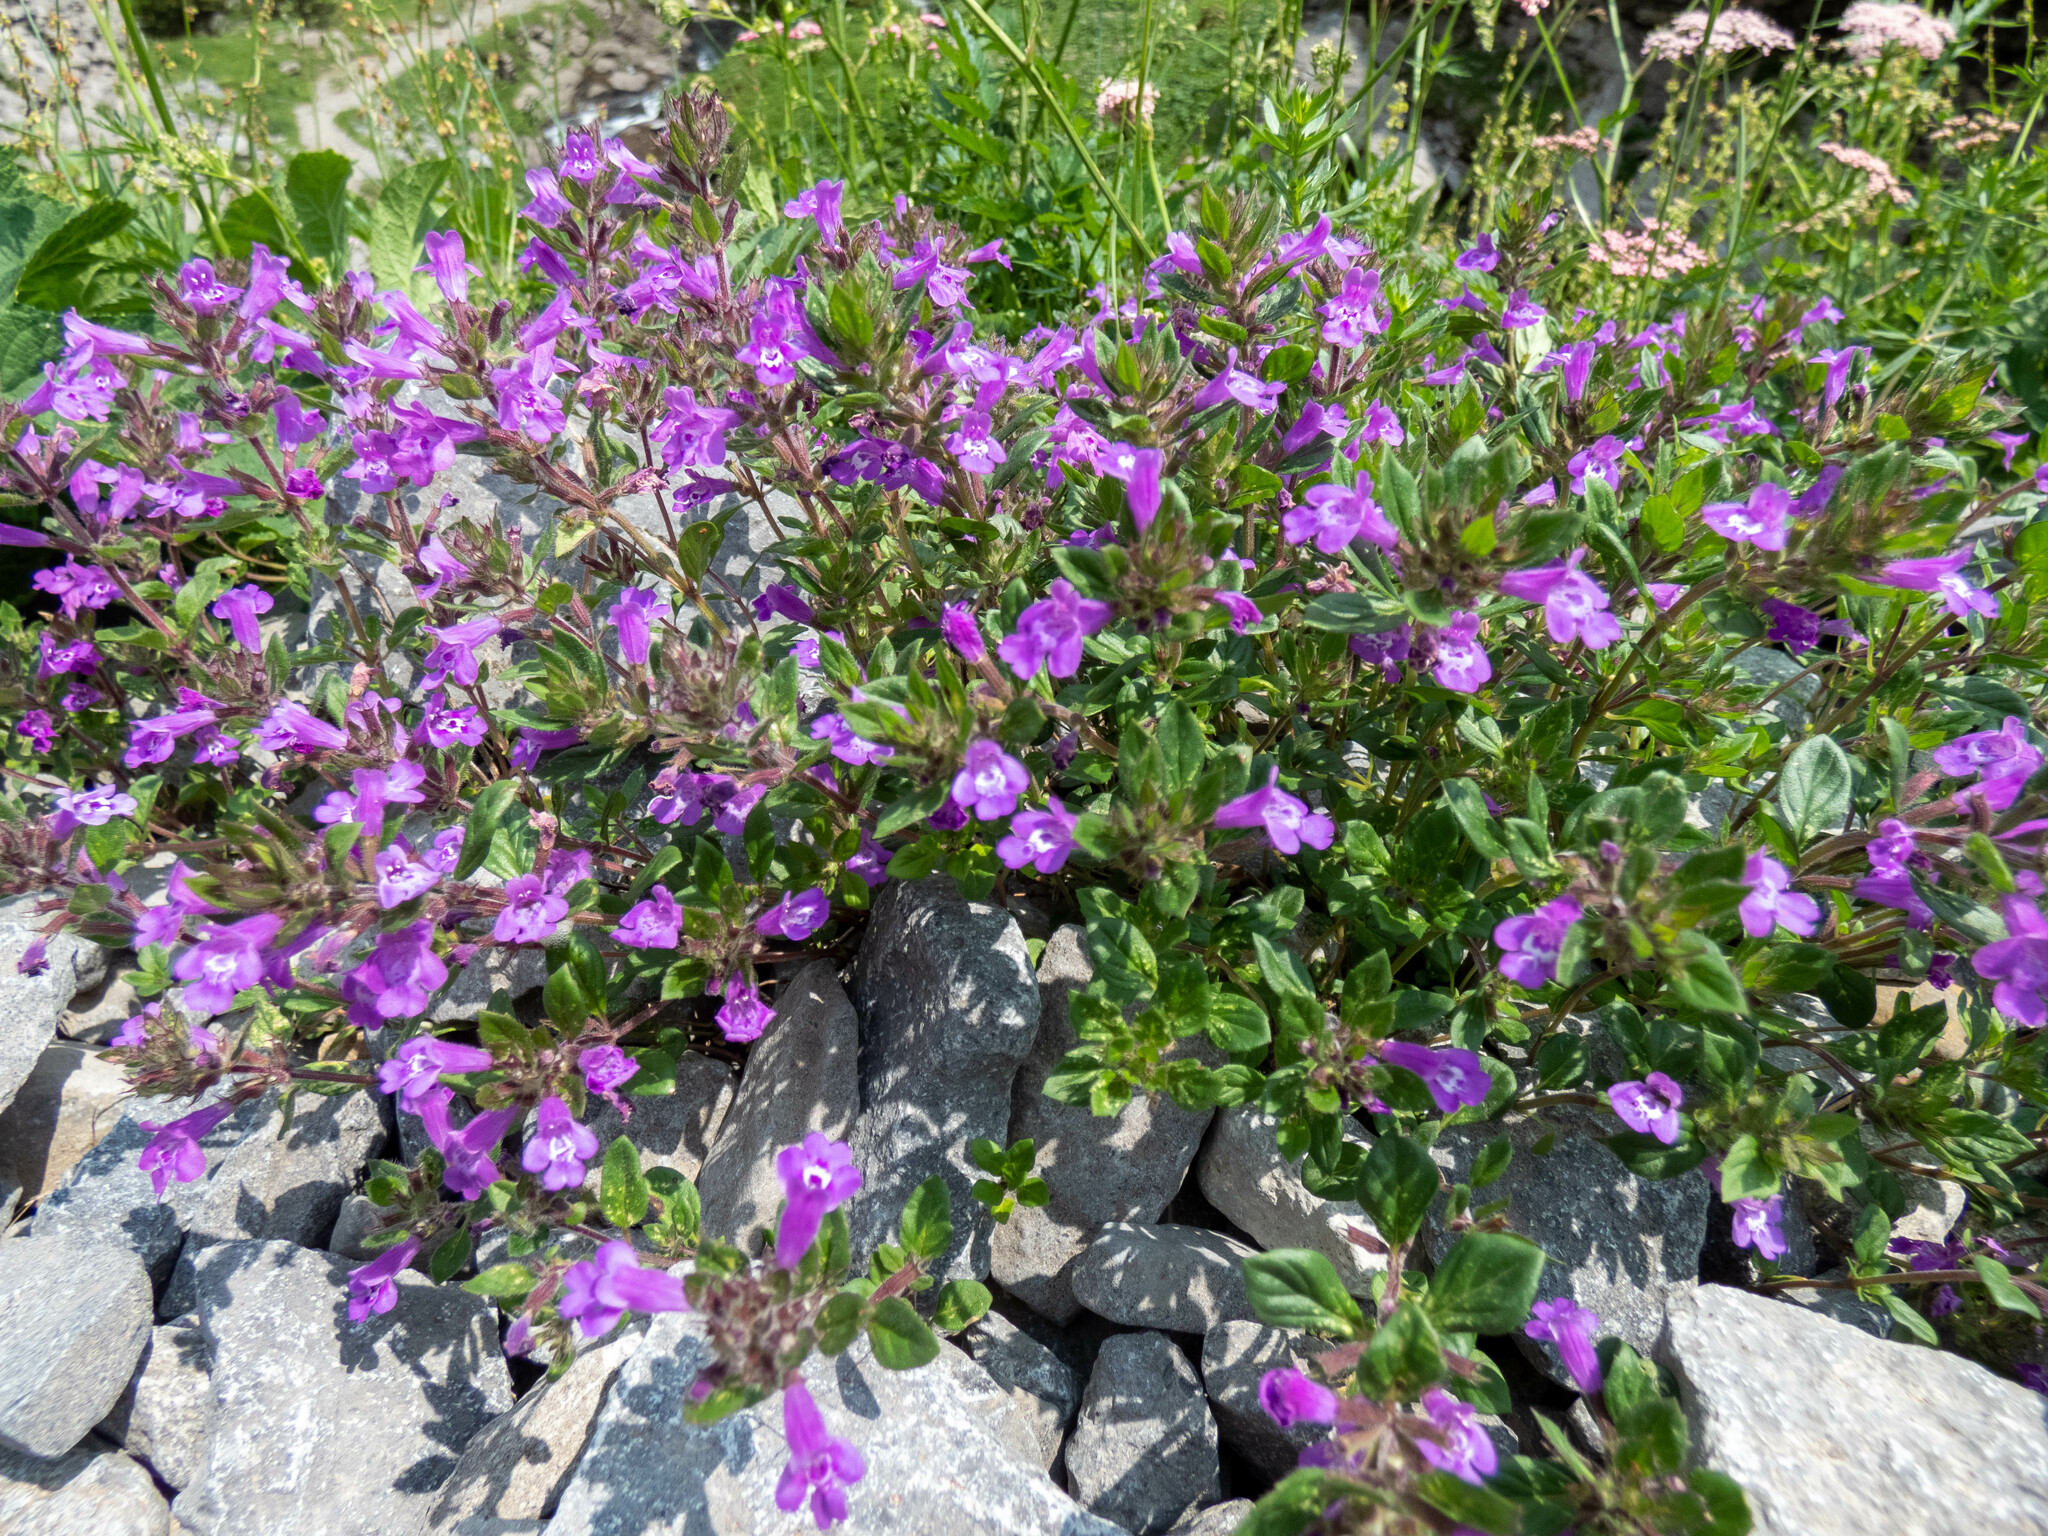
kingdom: Plantae
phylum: Tracheophyta
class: Magnoliopsida
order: Lamiales
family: Lamiaceae
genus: Clinopodium
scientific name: Clinopodium alpinum
